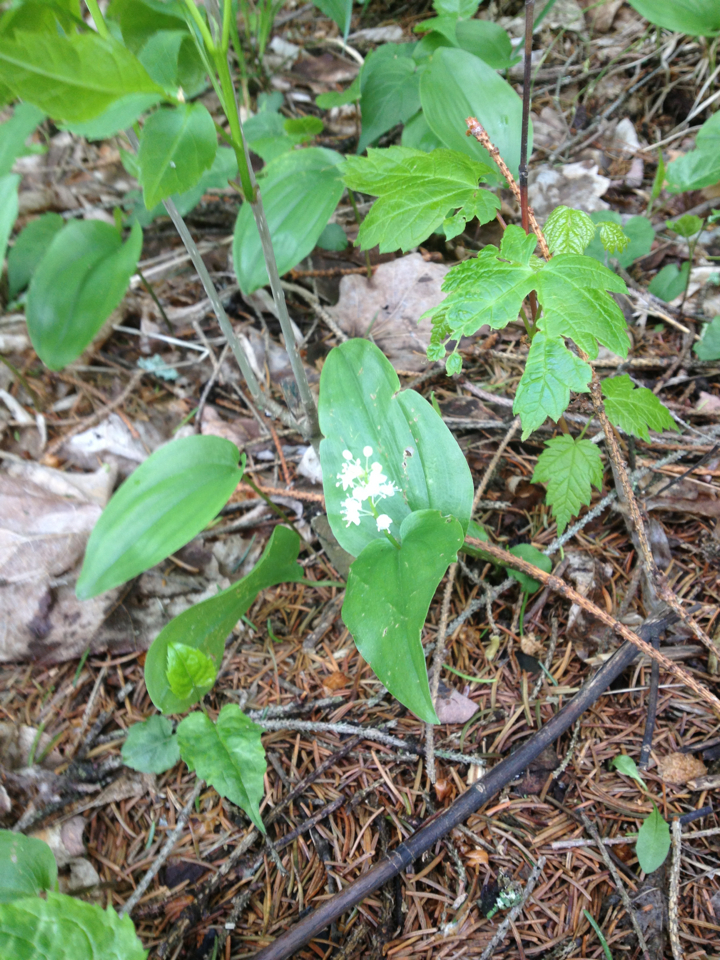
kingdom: Plantae
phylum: Tracheophyta
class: Liliopsida
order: Asparagales
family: Asparagaceae
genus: Maianthemum
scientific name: Maianthemum canadense
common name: False lily-of-the-valley
